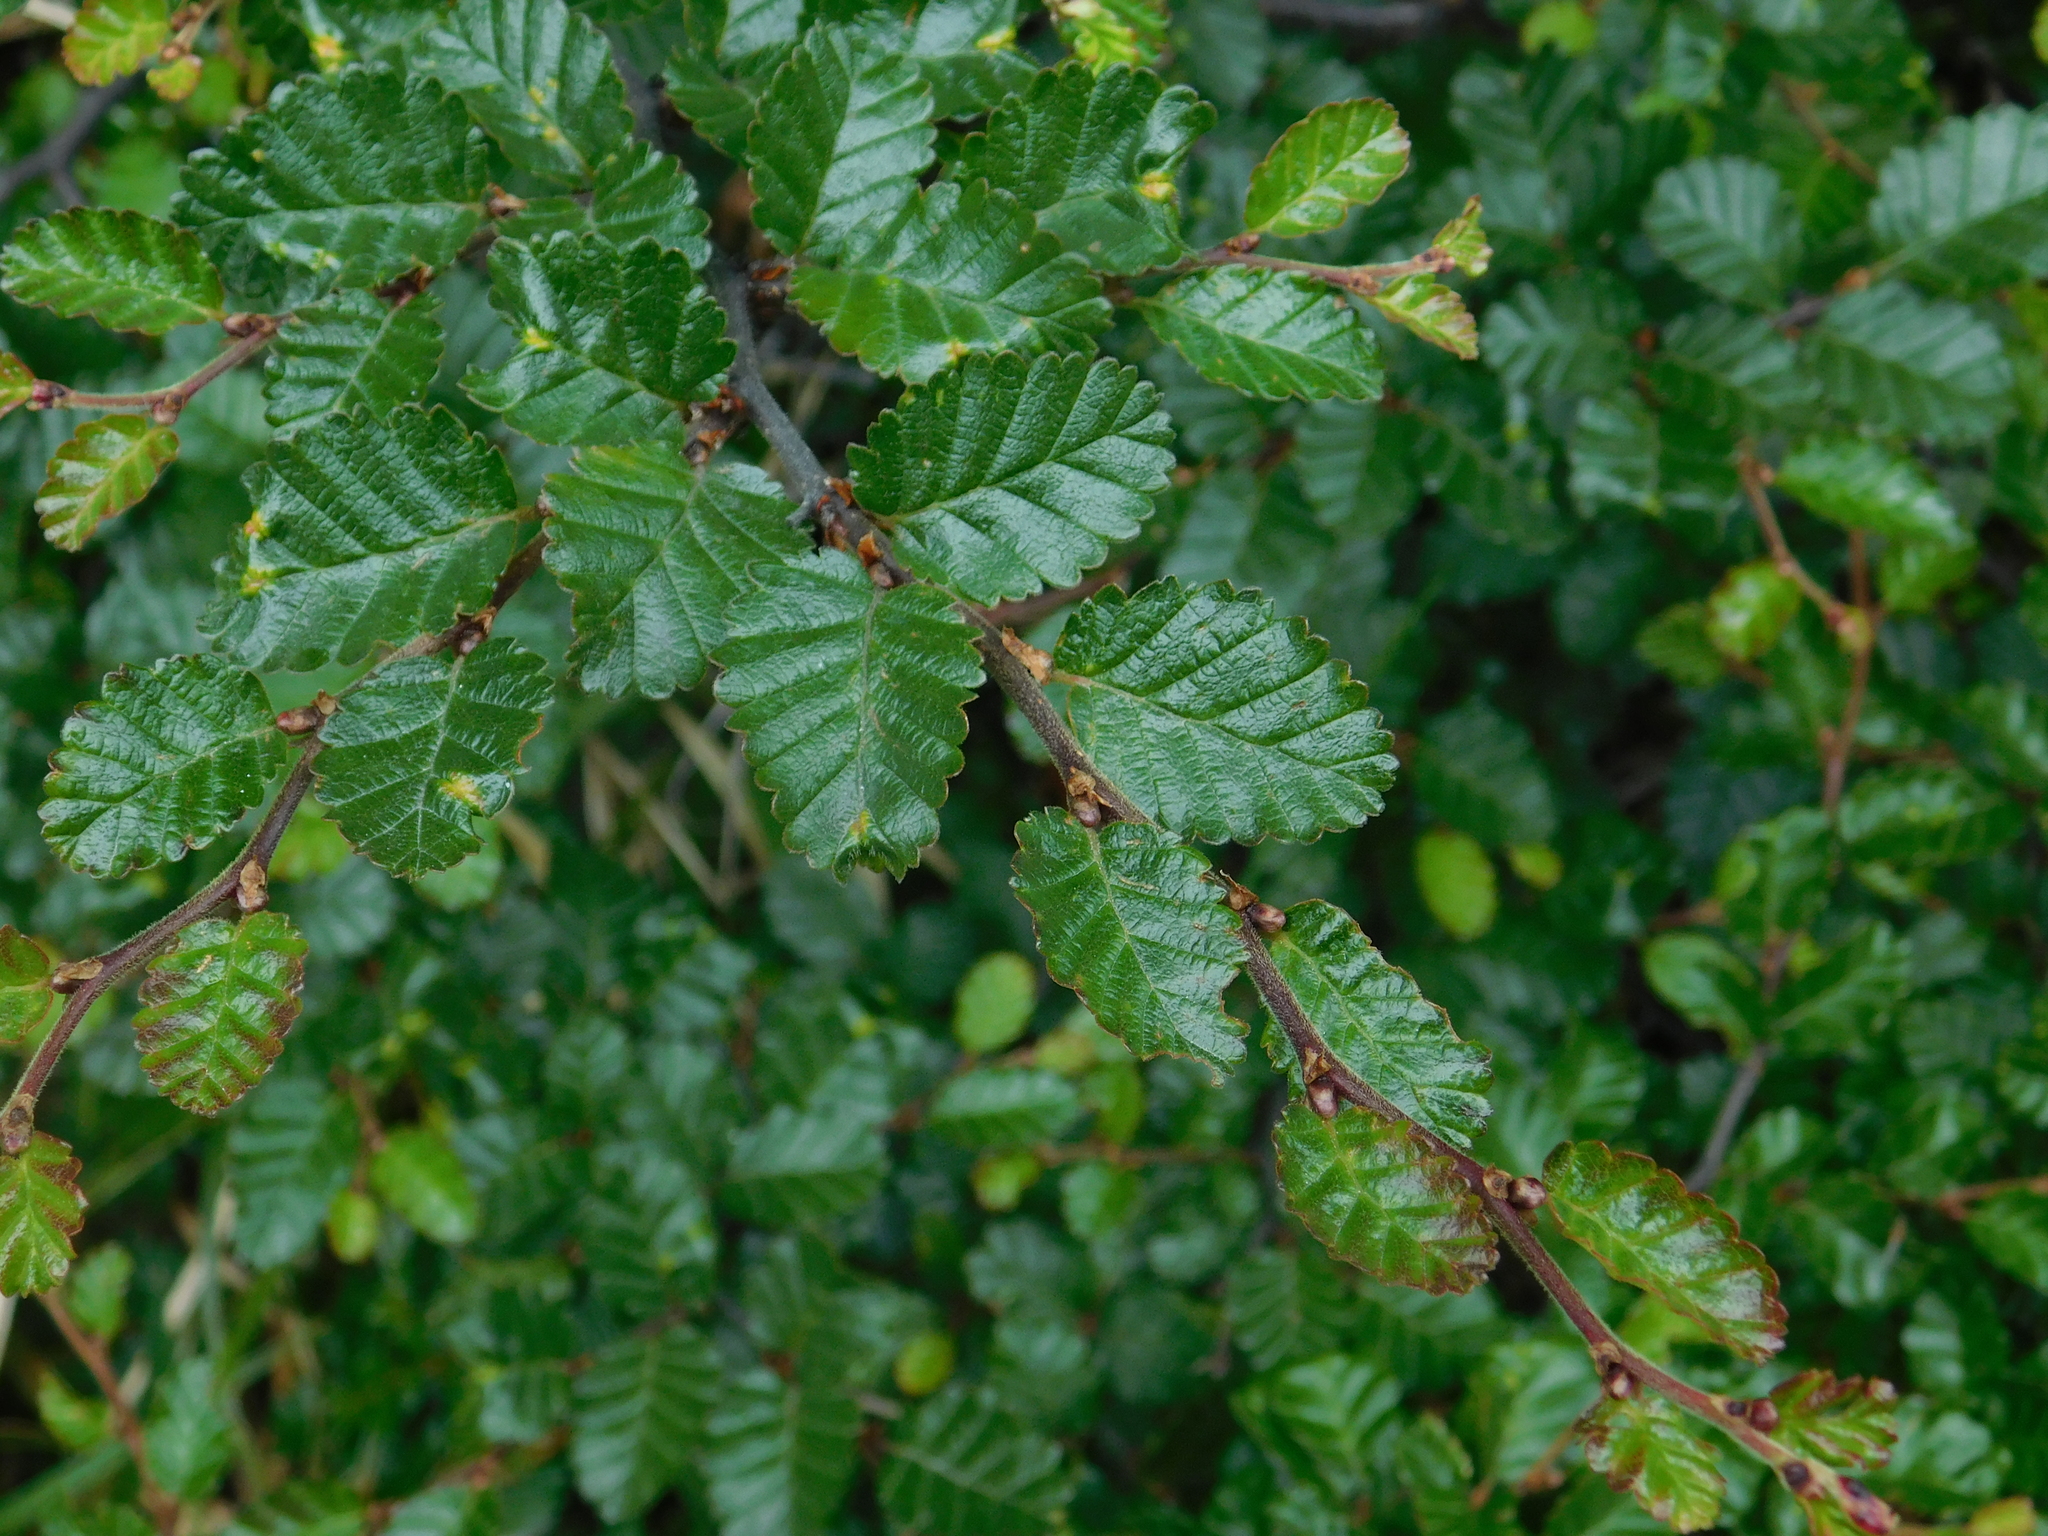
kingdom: Plantae
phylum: Tracheophyta
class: Magnoliopsida
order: Fagales
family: Nothofagaceae
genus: Nothofagus
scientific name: Nothofagus pumilio
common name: Lenga beech
